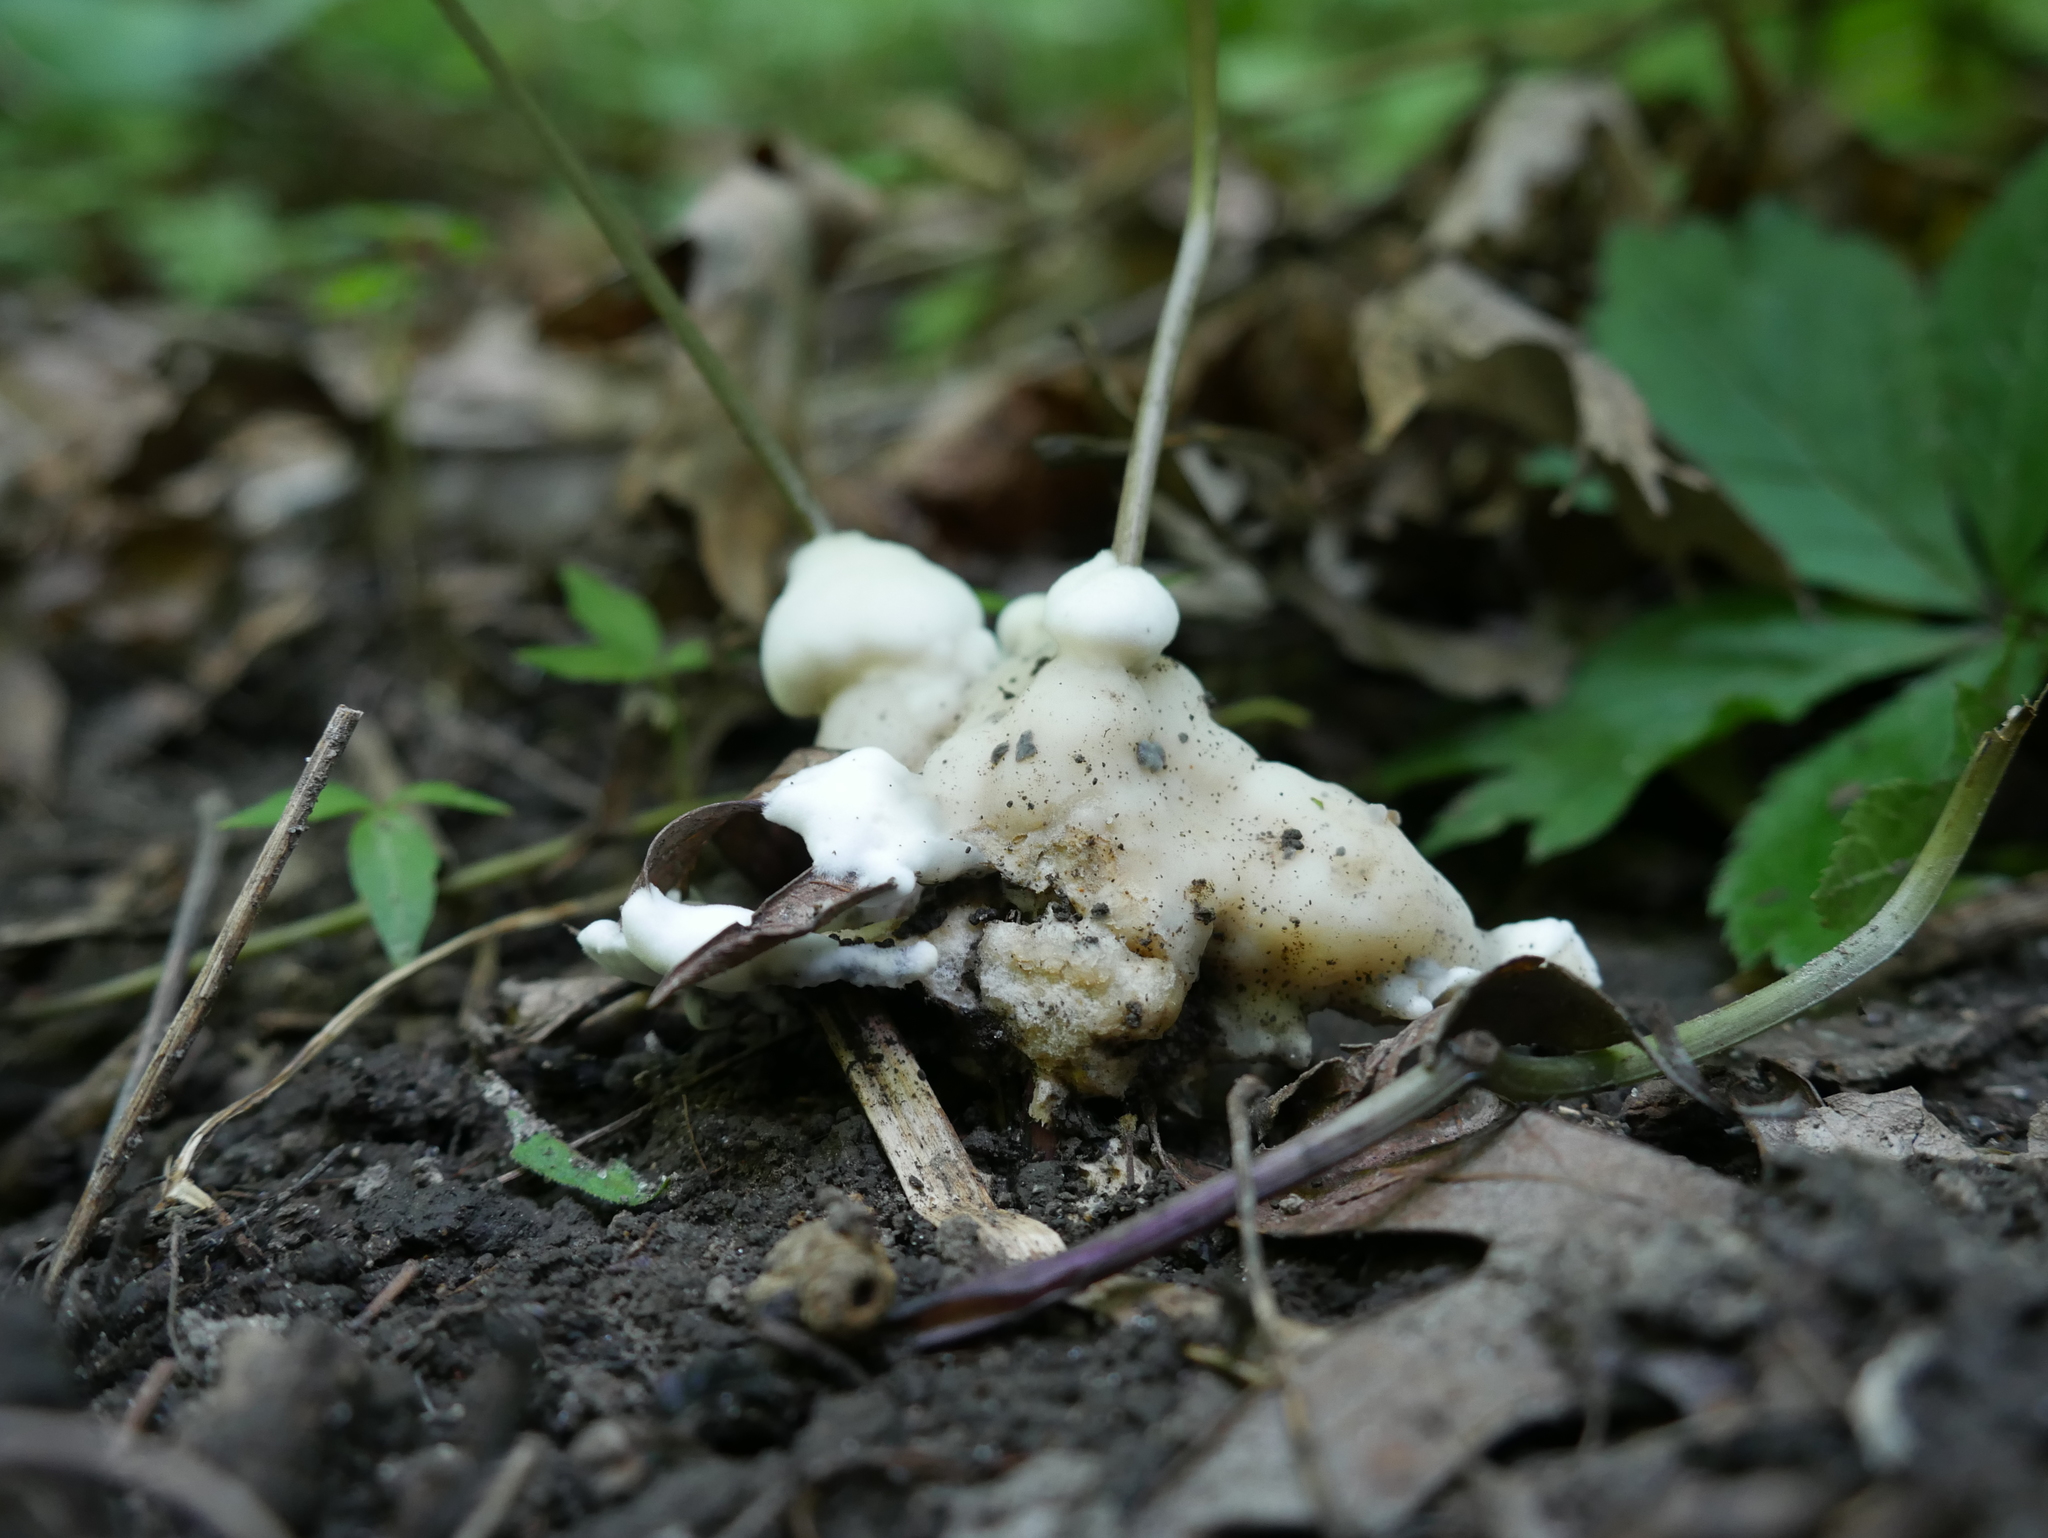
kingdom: Fungi
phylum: Basidiomycota
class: Agaricomycetes
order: Sebacinales
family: Sebacinaceae
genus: Sebacina
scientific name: Sebacina incrustans
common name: Enveloping crust
